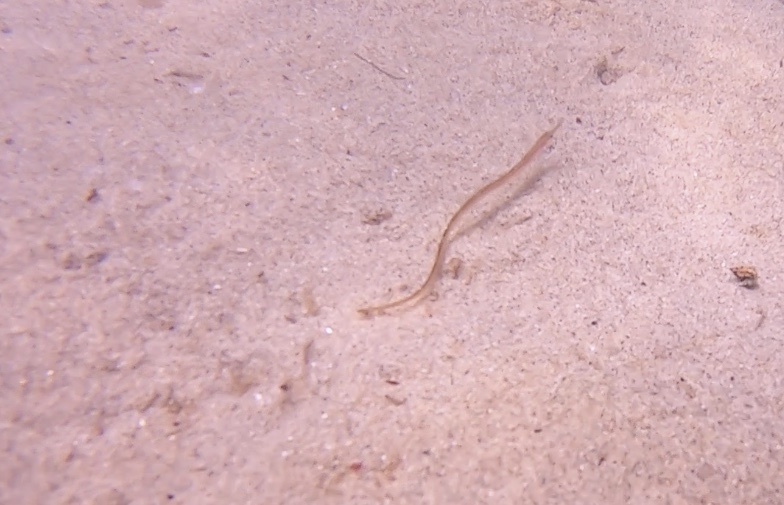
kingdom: Animalia
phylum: Chordata
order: Syngnathiformes
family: Syngnathidae
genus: Syngnathus
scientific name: Syngnathus fuscus
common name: Northern pipefish
